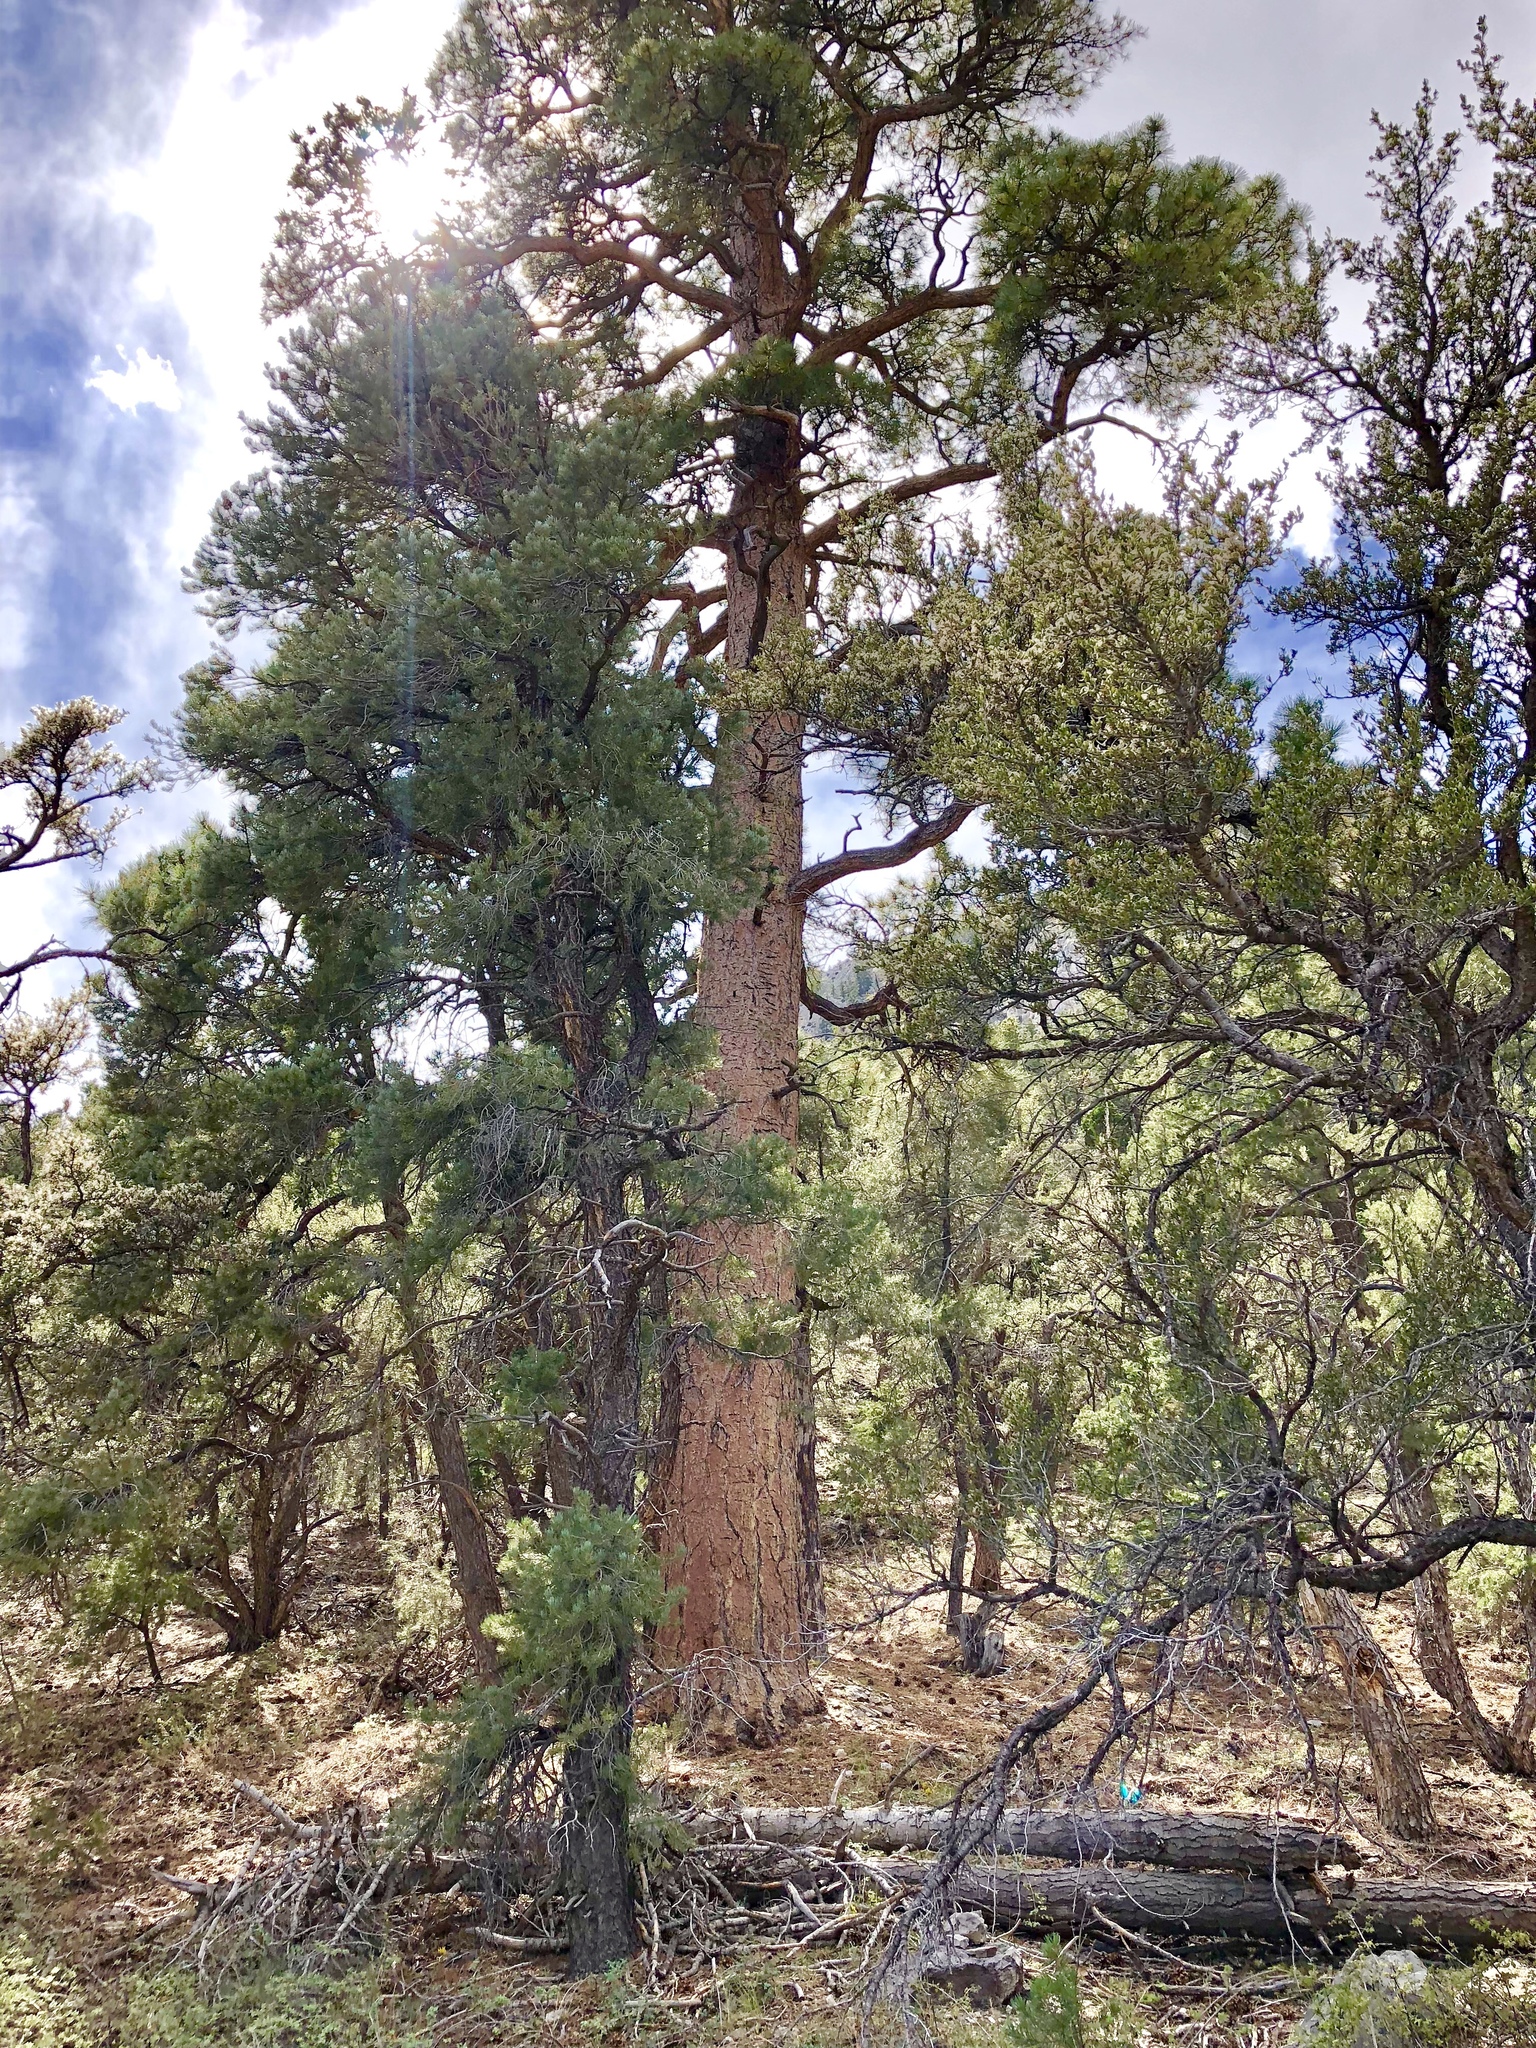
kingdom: Plantae
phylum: Tracheophyta
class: Pinopsida
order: Pinales
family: Pinaceae
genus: Pinus
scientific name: Pinus ponderosa
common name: Western yellow-pine
